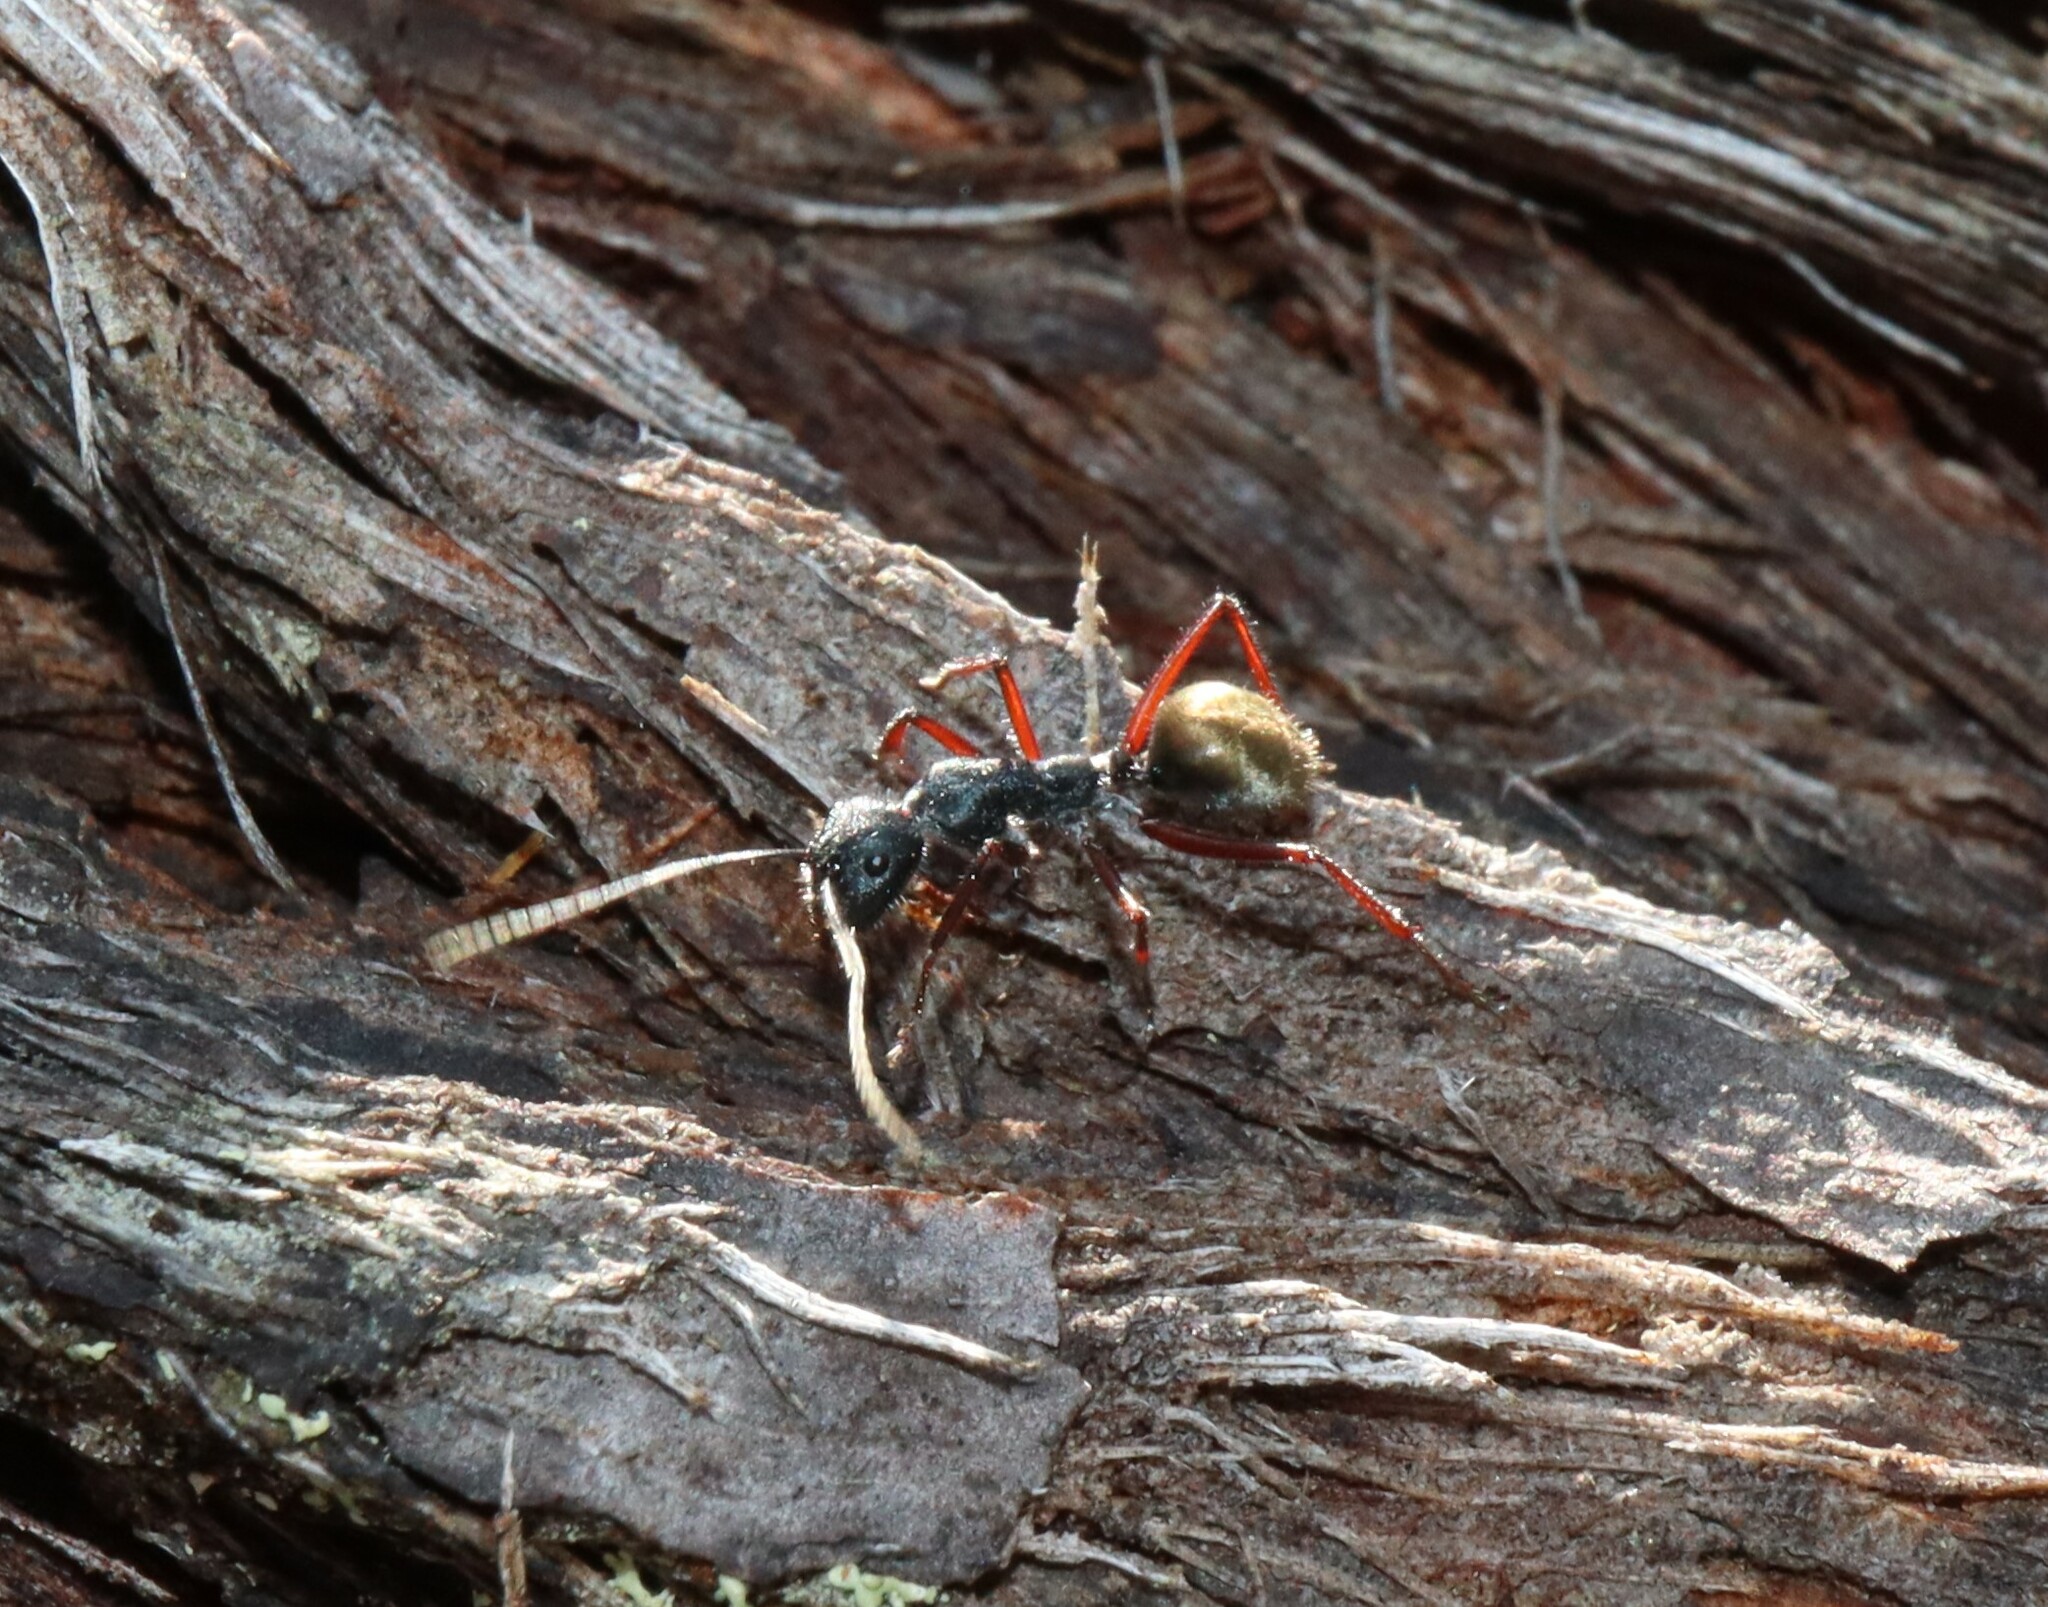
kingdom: Animalia
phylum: Arthropoda
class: Insecta
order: Hymenoptera
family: Formicidae
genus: Camponotus
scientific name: Camponotus suffusus
